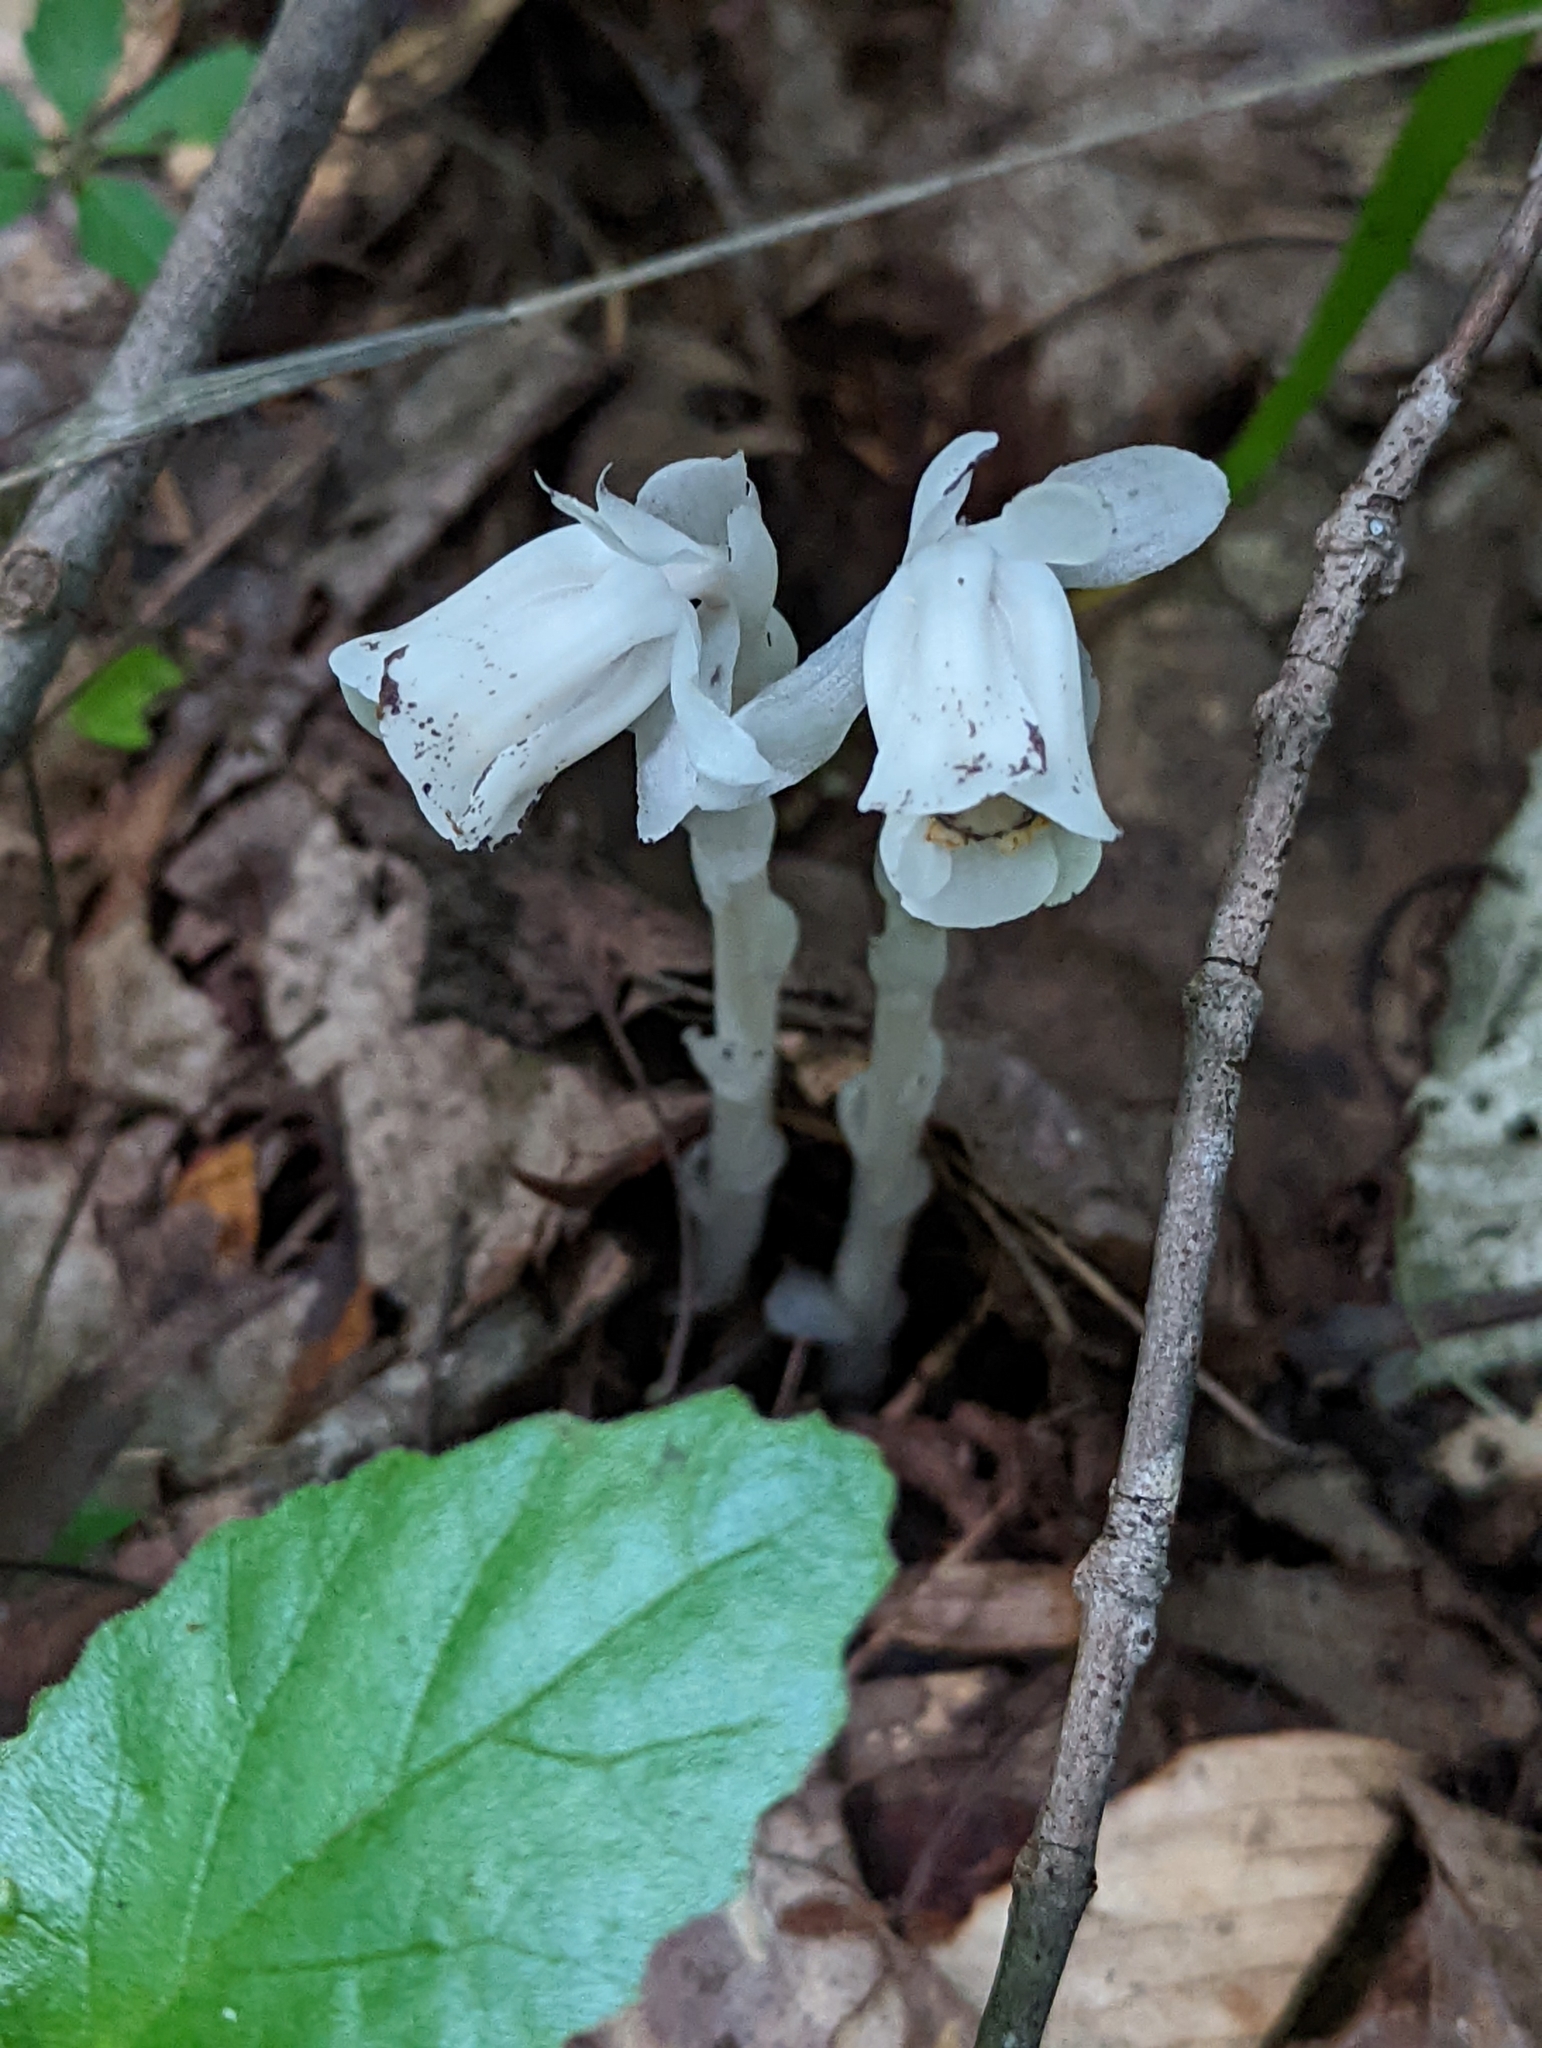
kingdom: Plantae
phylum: Tracheophyta
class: Magnoliopsida
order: Ericales
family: Ericaceae
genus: Monotropa
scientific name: Monotropa uniflora
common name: Convulsion root
